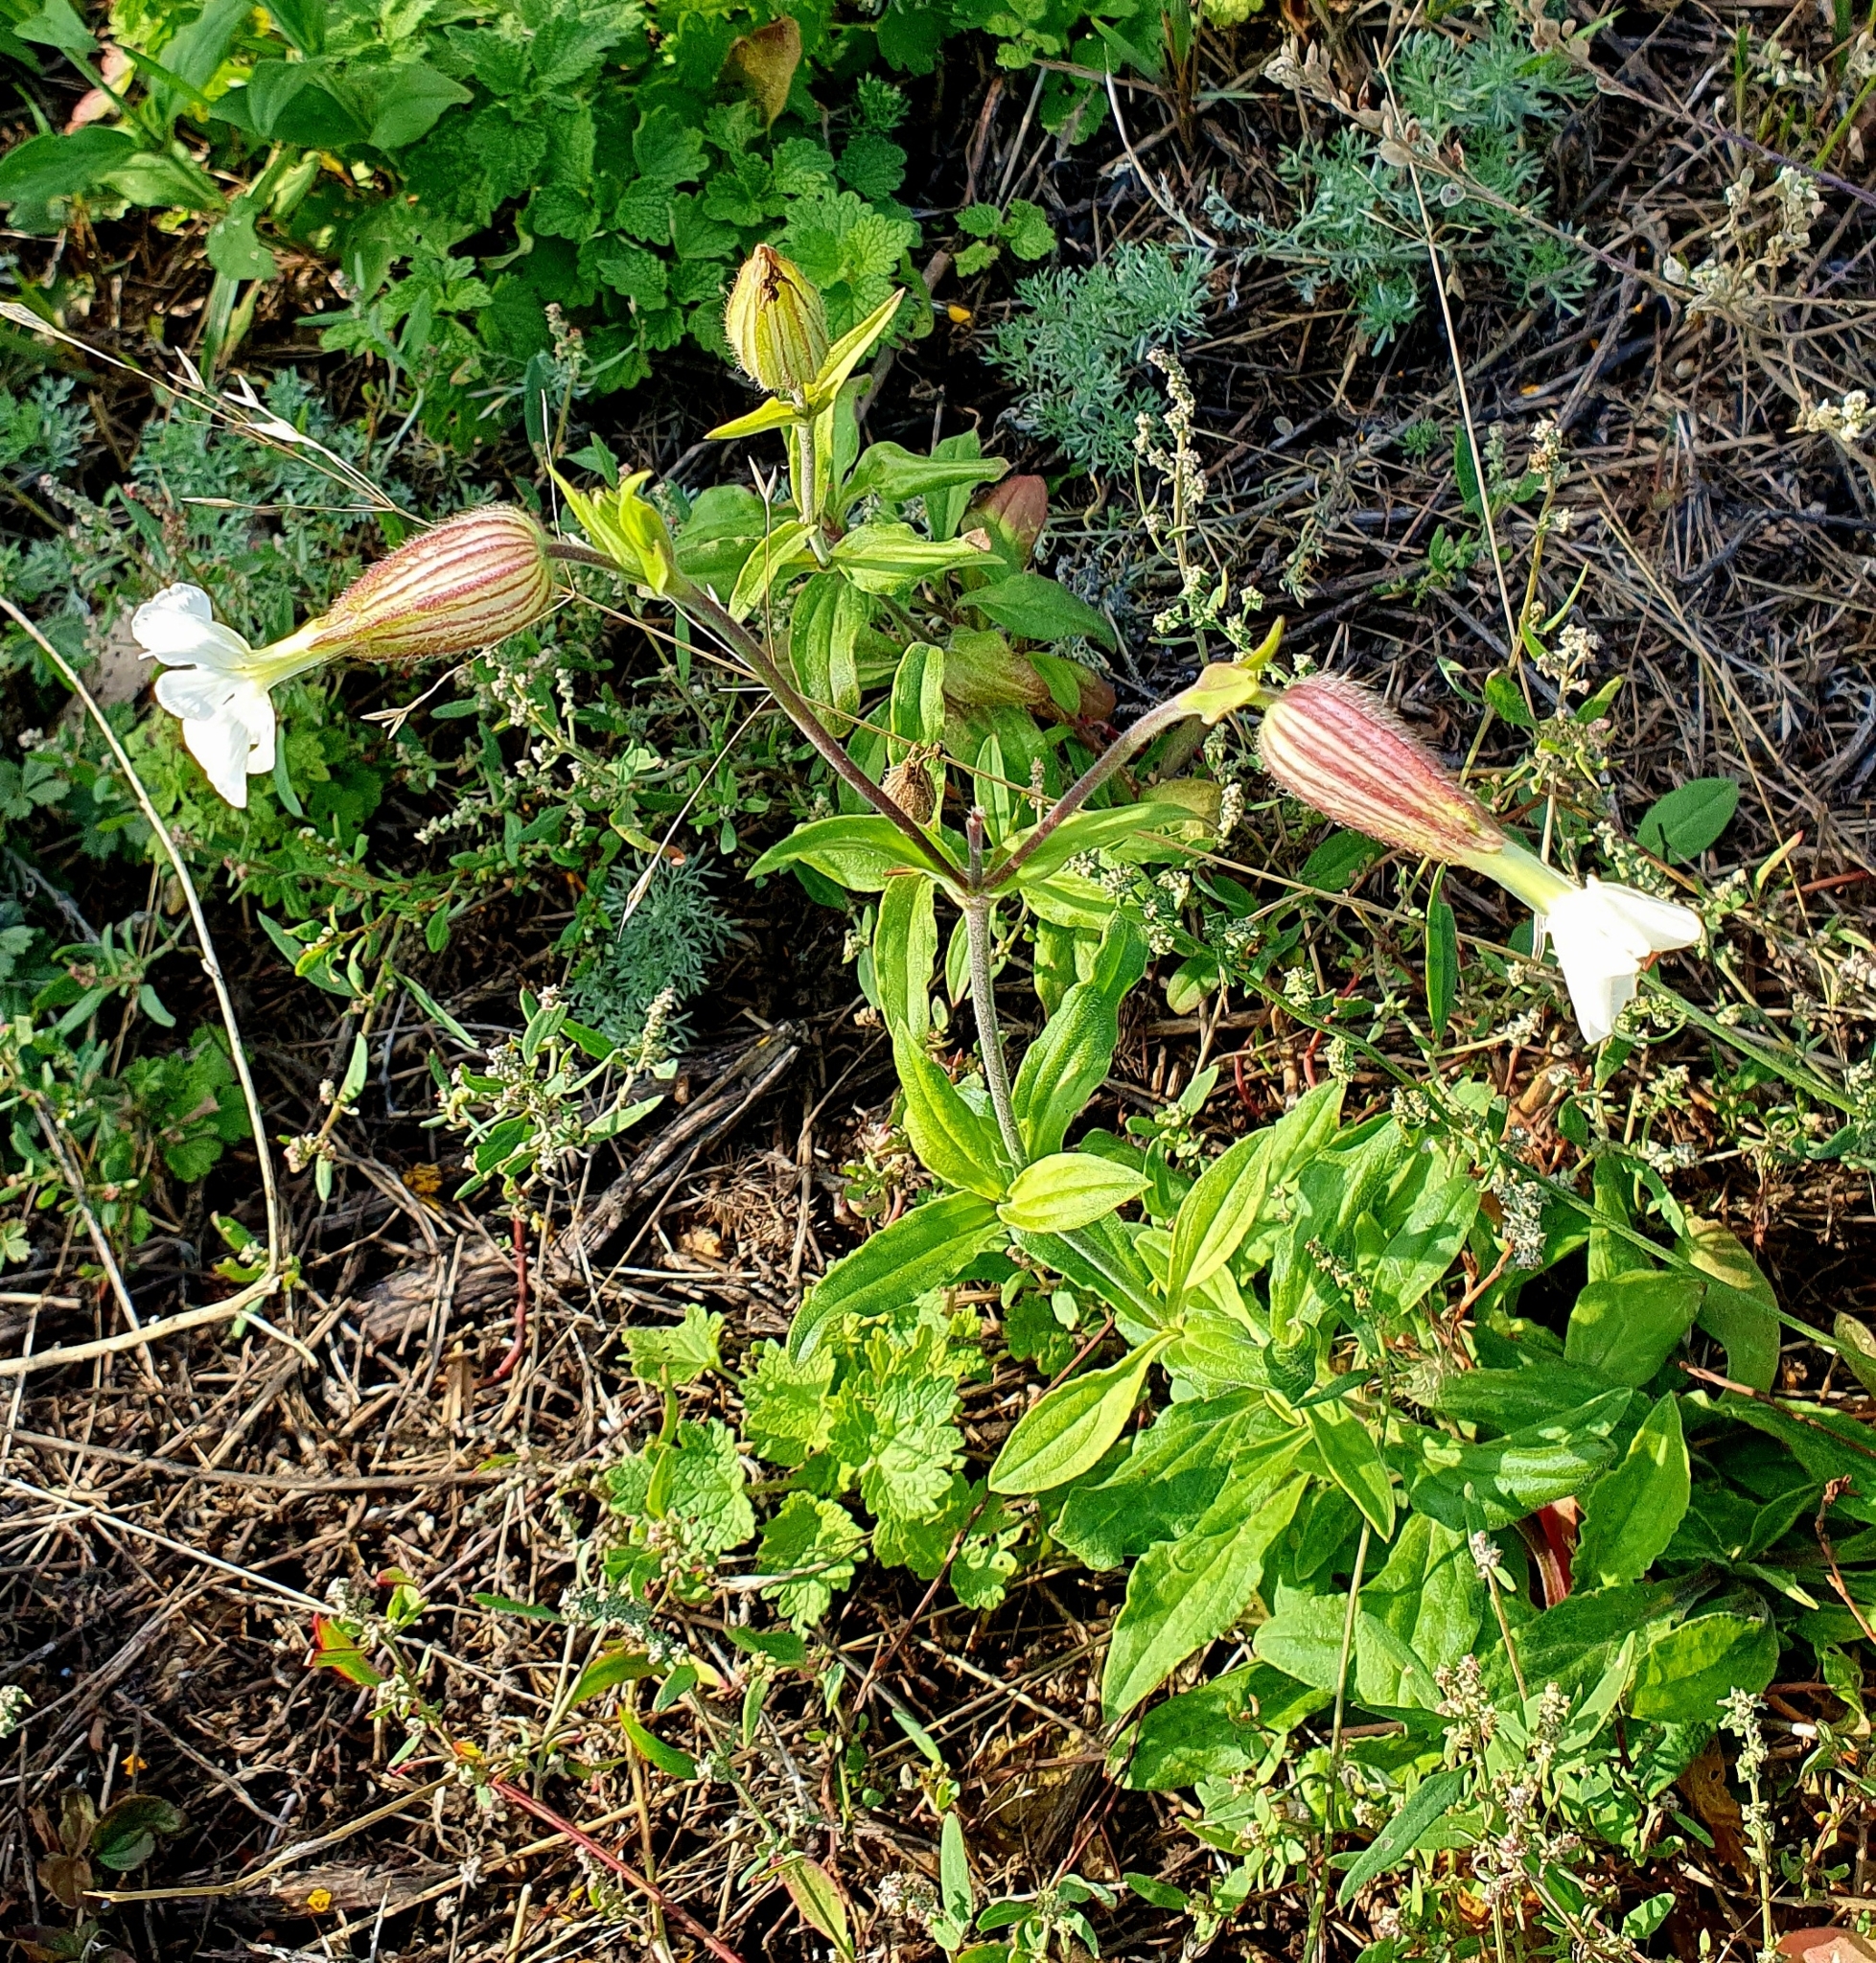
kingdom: Plantae
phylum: Tracheophyta
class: Magnoliopsida
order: Caryophyllales
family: Caryophyllaceae
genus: Silene
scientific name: Silene latifolia
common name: White campion
